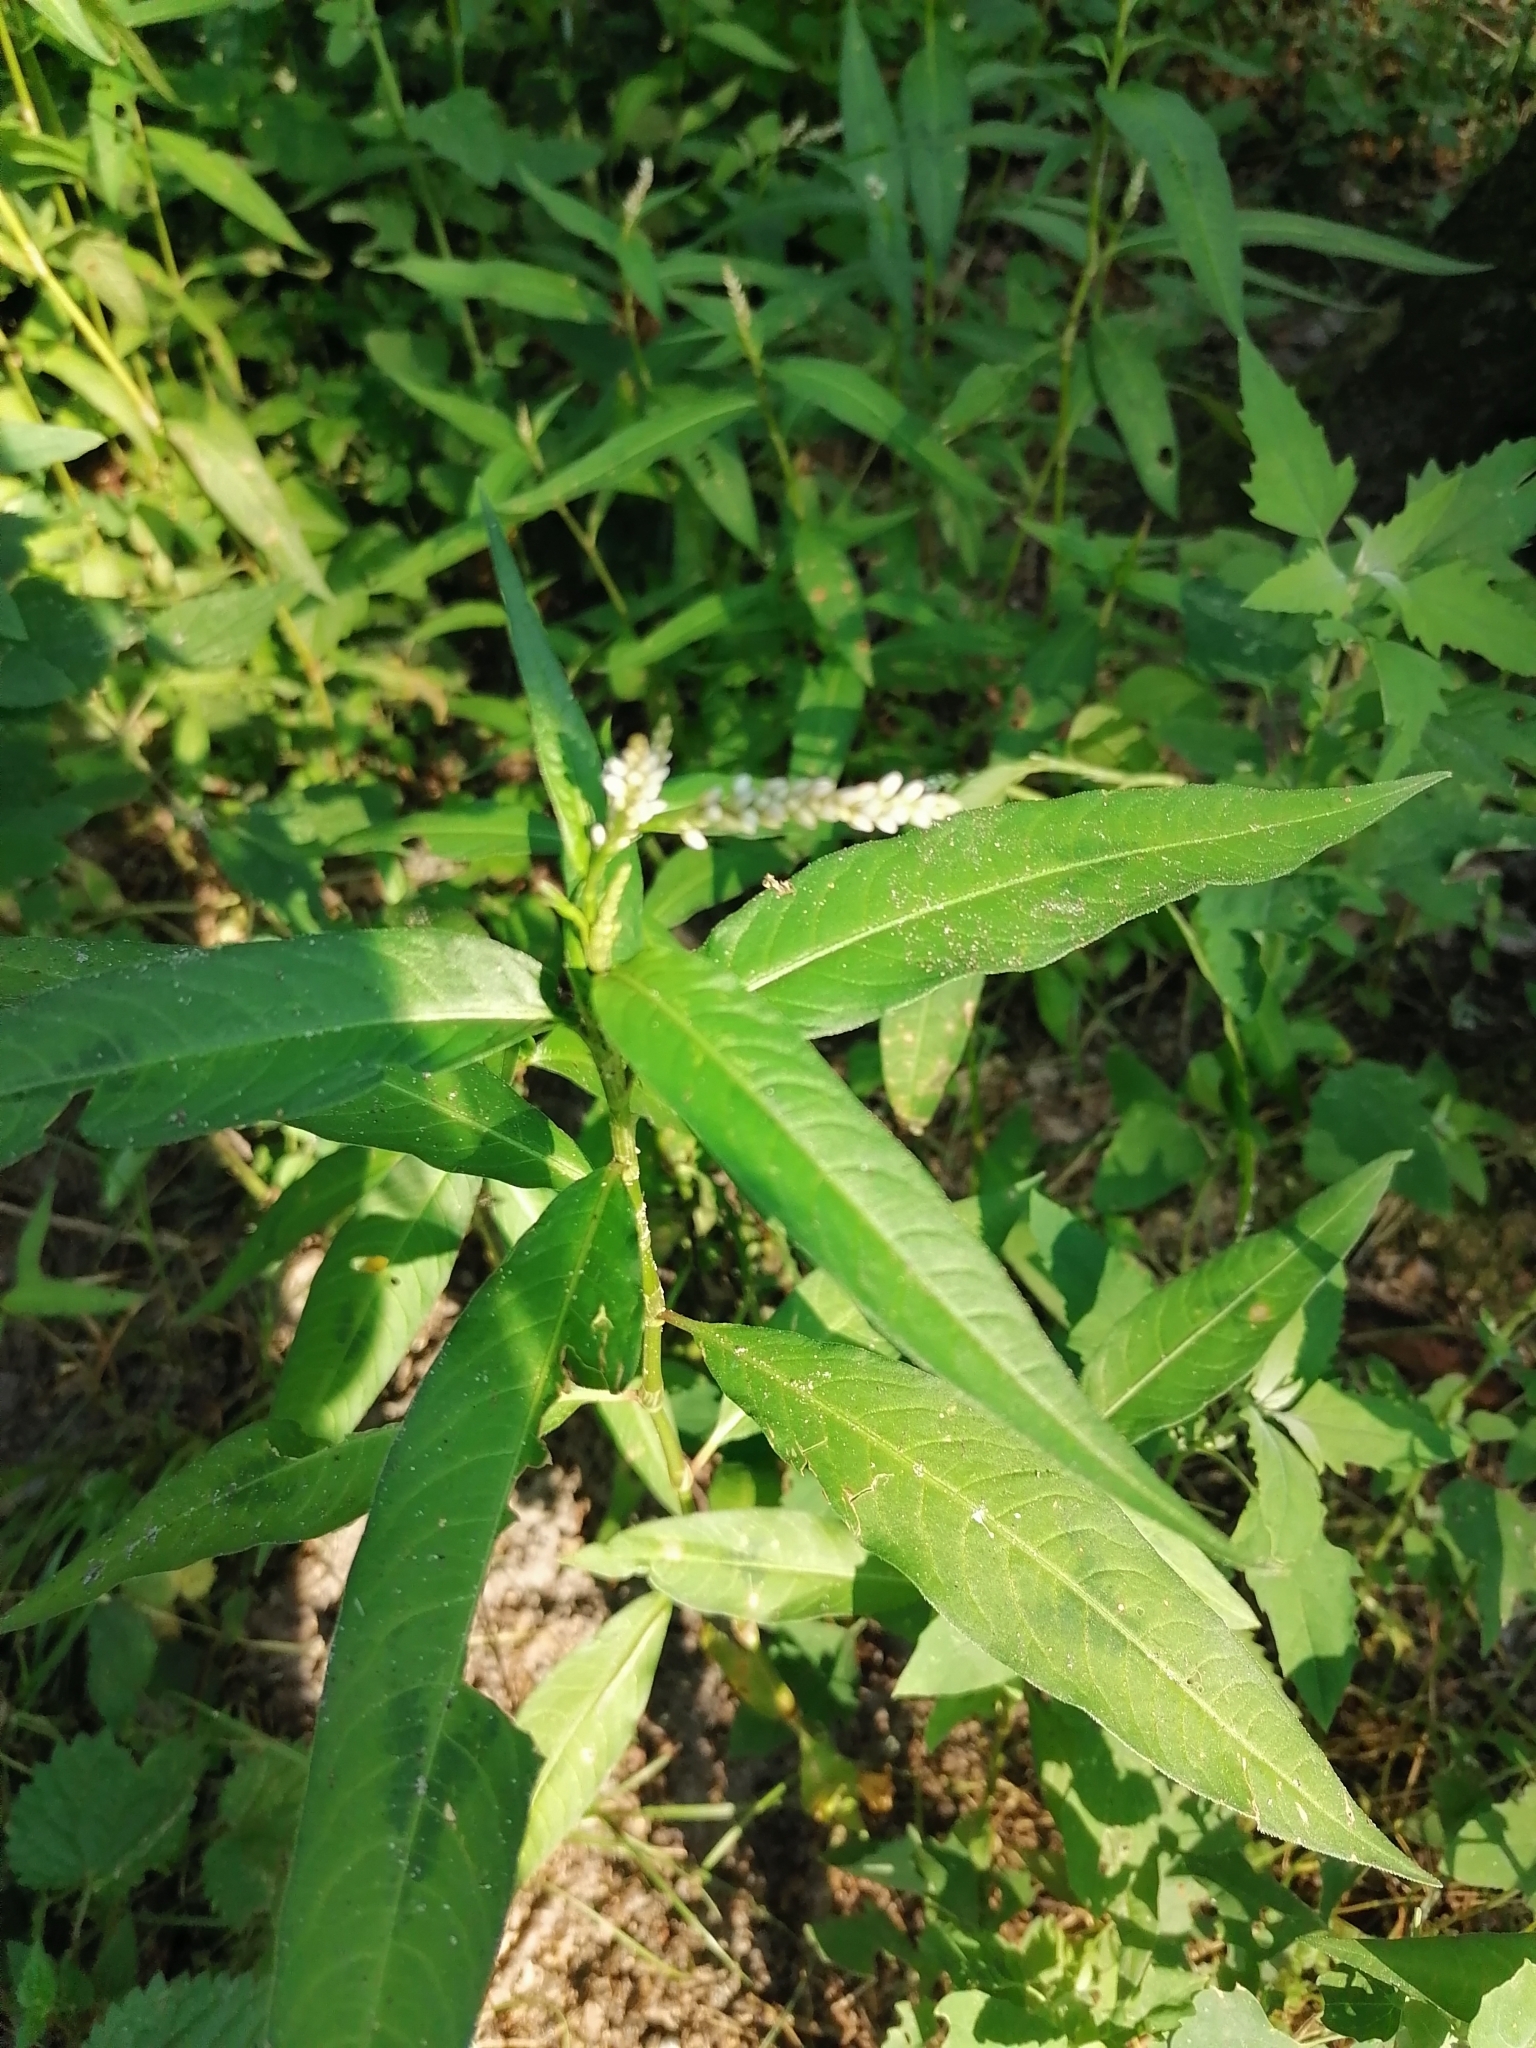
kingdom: Plantae
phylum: Tracheophyta
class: Magnoliopsida
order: Caryophyllales
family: Polygonaceae
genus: Persicaria
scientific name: Persicaria lapathifolia
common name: Curlytop knotweed
